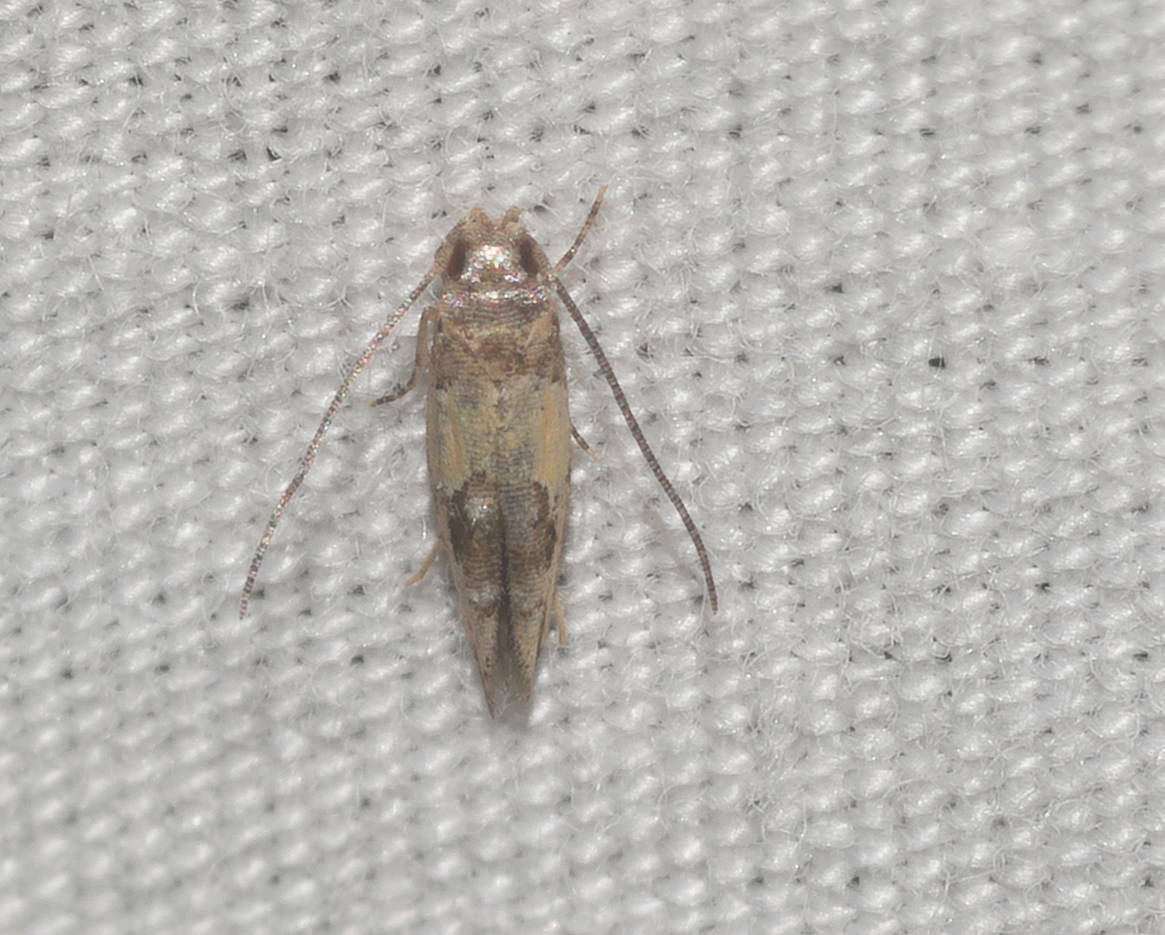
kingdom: Animalia
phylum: Arthropoda
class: Insecta
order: Lepidoptera
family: Momphidae
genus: Mompha
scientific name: Mompha trithalama
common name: Moth
